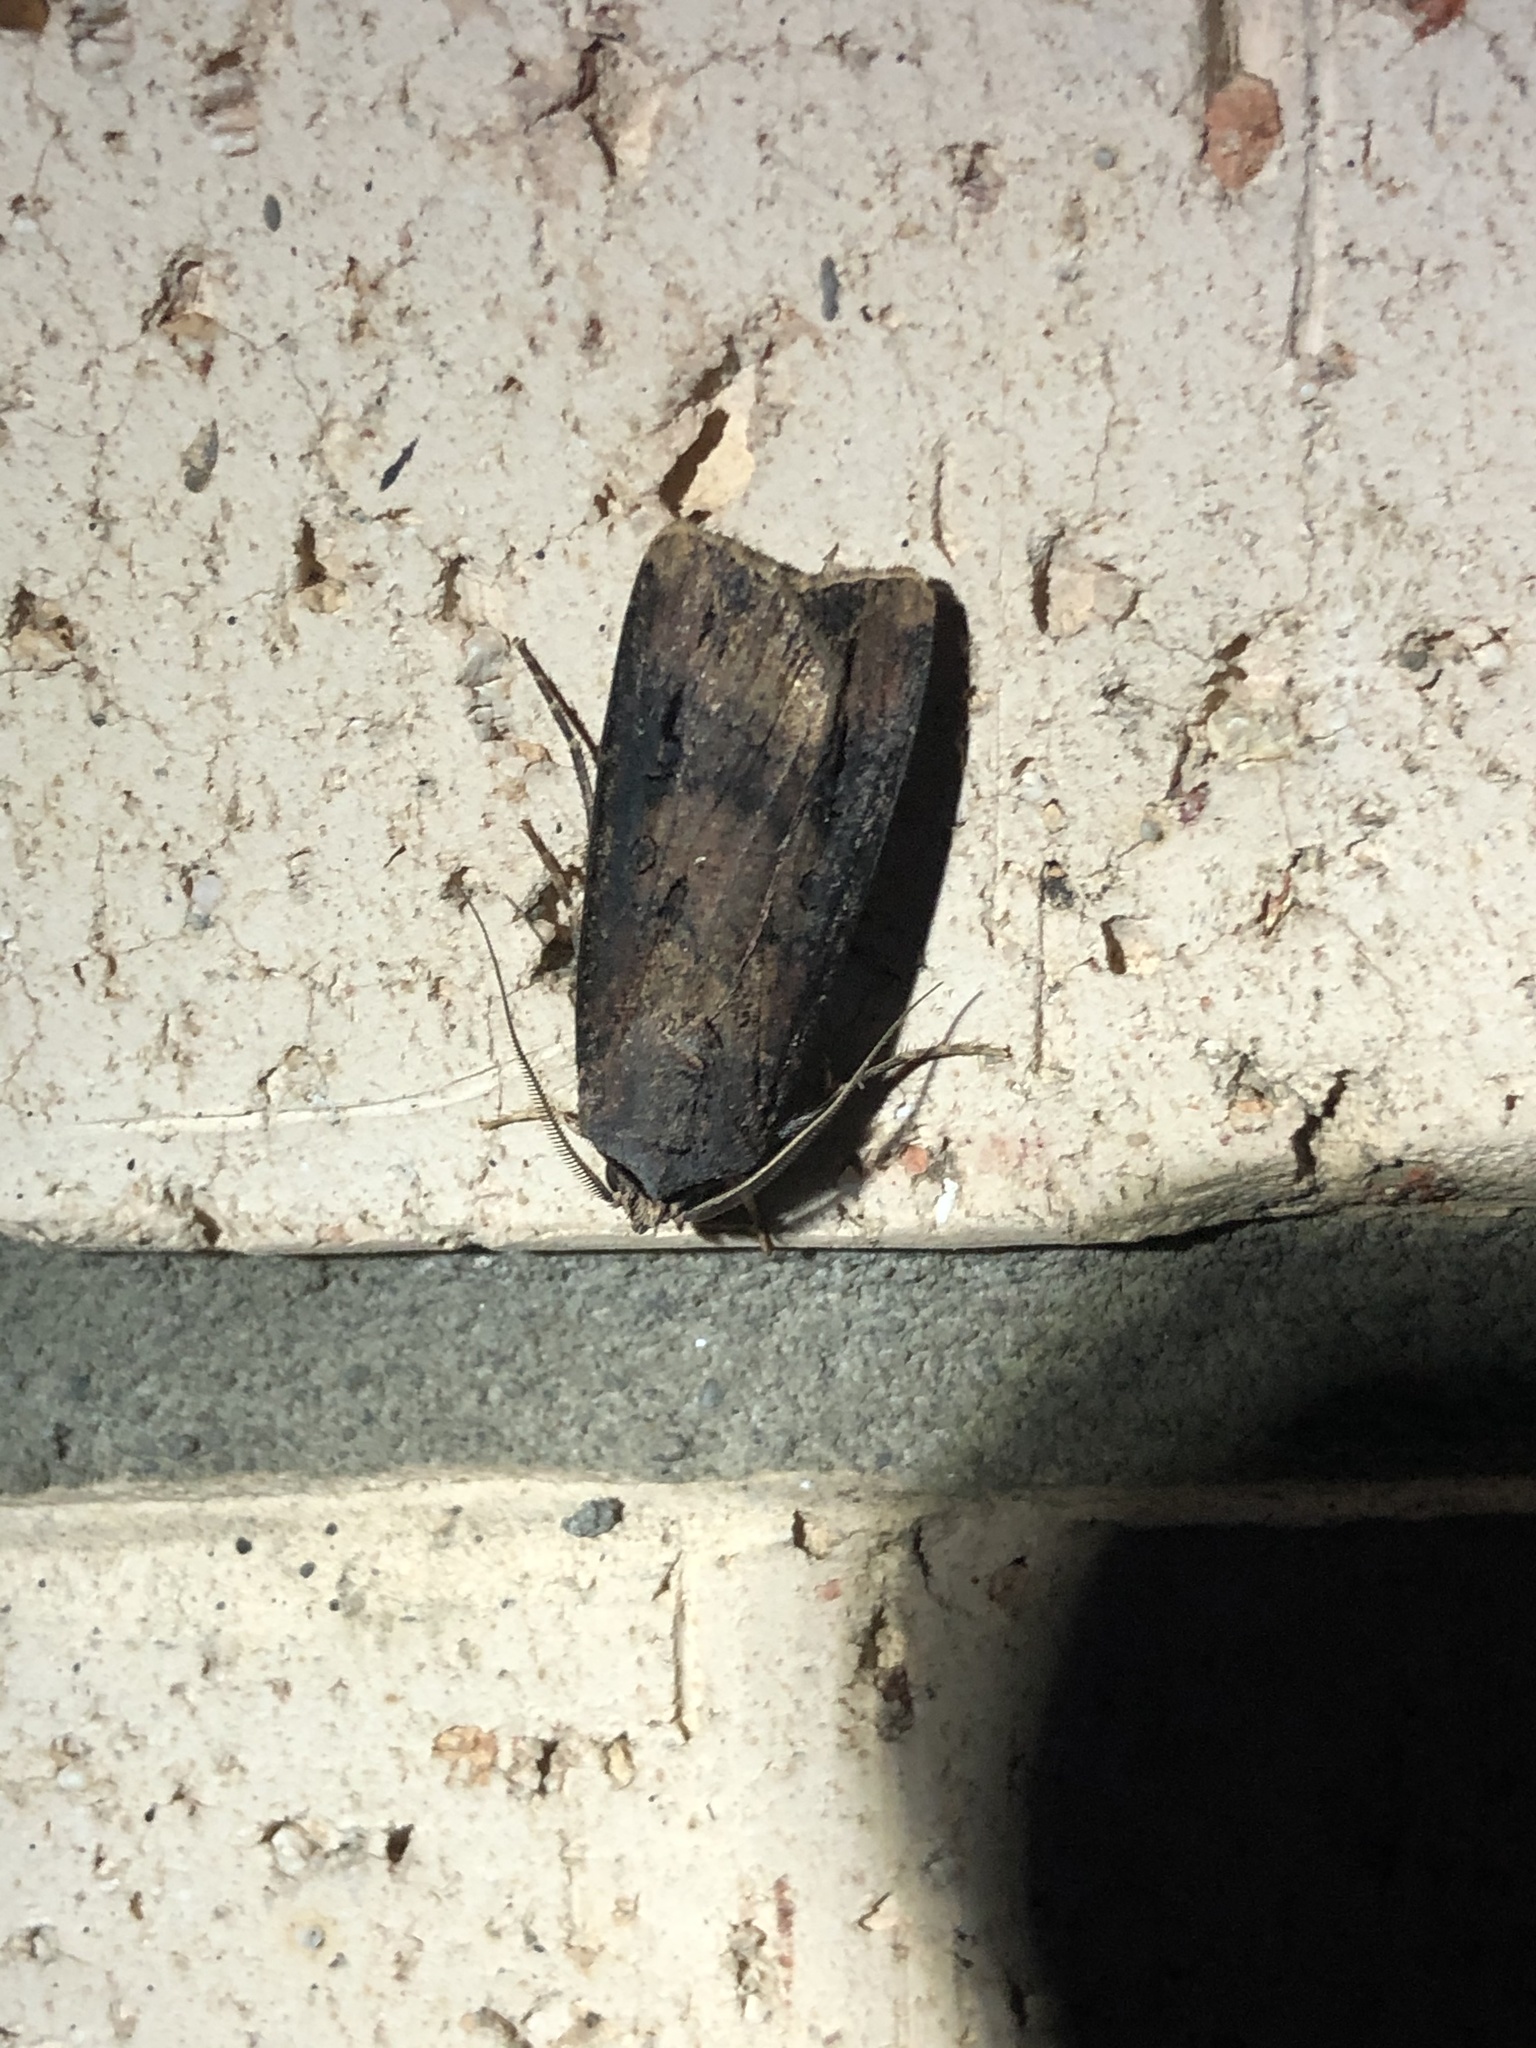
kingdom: Animalia
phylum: Arthropoda
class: Insecta
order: Lepidoptera
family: Noctuidae
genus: Agrotis
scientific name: Agrotis ipsilon
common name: Dark sword-grass
